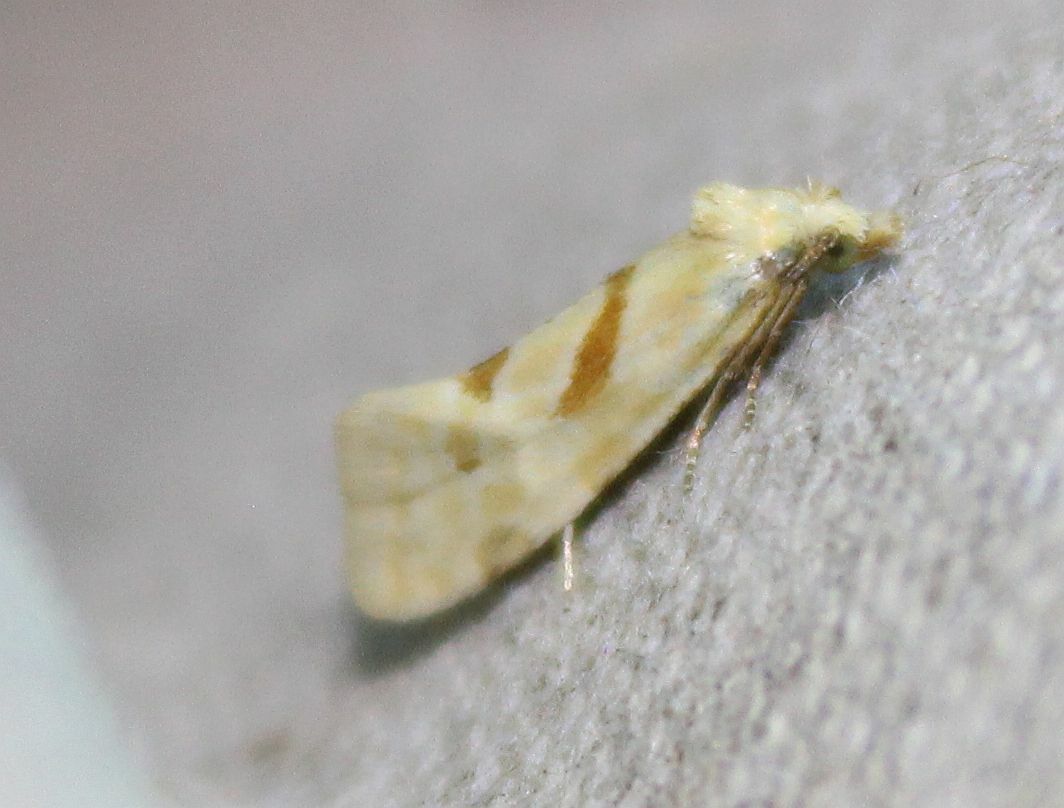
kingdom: Animalia
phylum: Arthropoda
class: Insecta
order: Lepidoptera
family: Tortricidae
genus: Aethes
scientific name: Aethes smeathmanniana
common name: Yarrow conch
